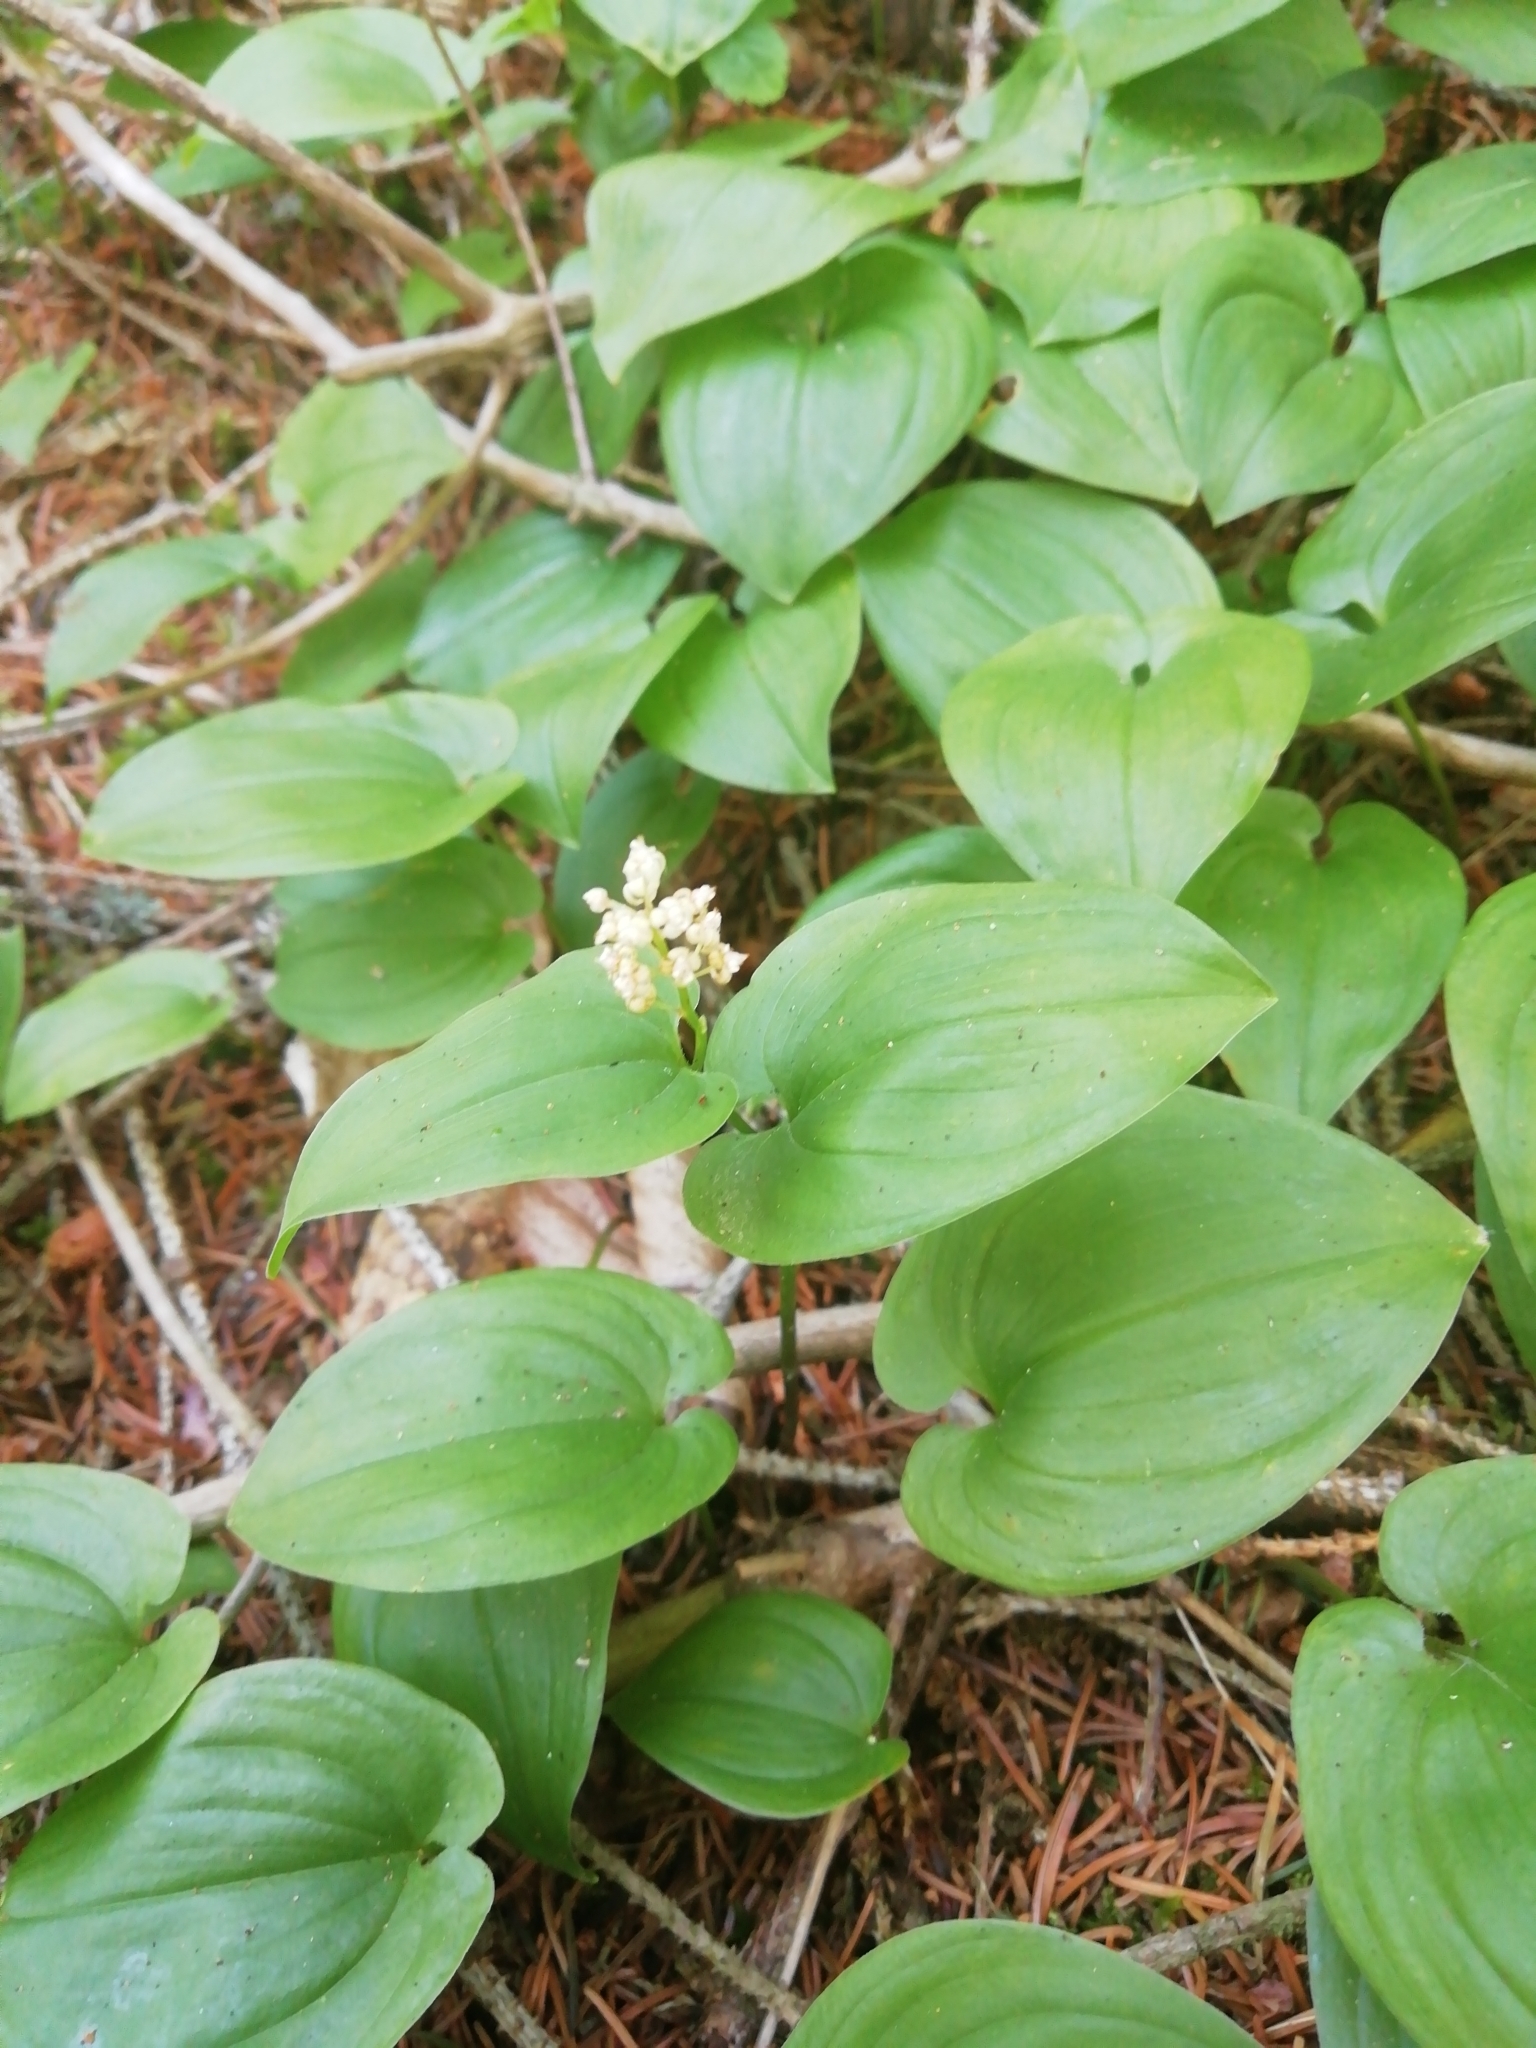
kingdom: Plantae
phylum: Tracheophyta
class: Liliopsida
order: Asparagales
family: Asparagaceae
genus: Maianthemum
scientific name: Maianthemum bifolium
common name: May lily
